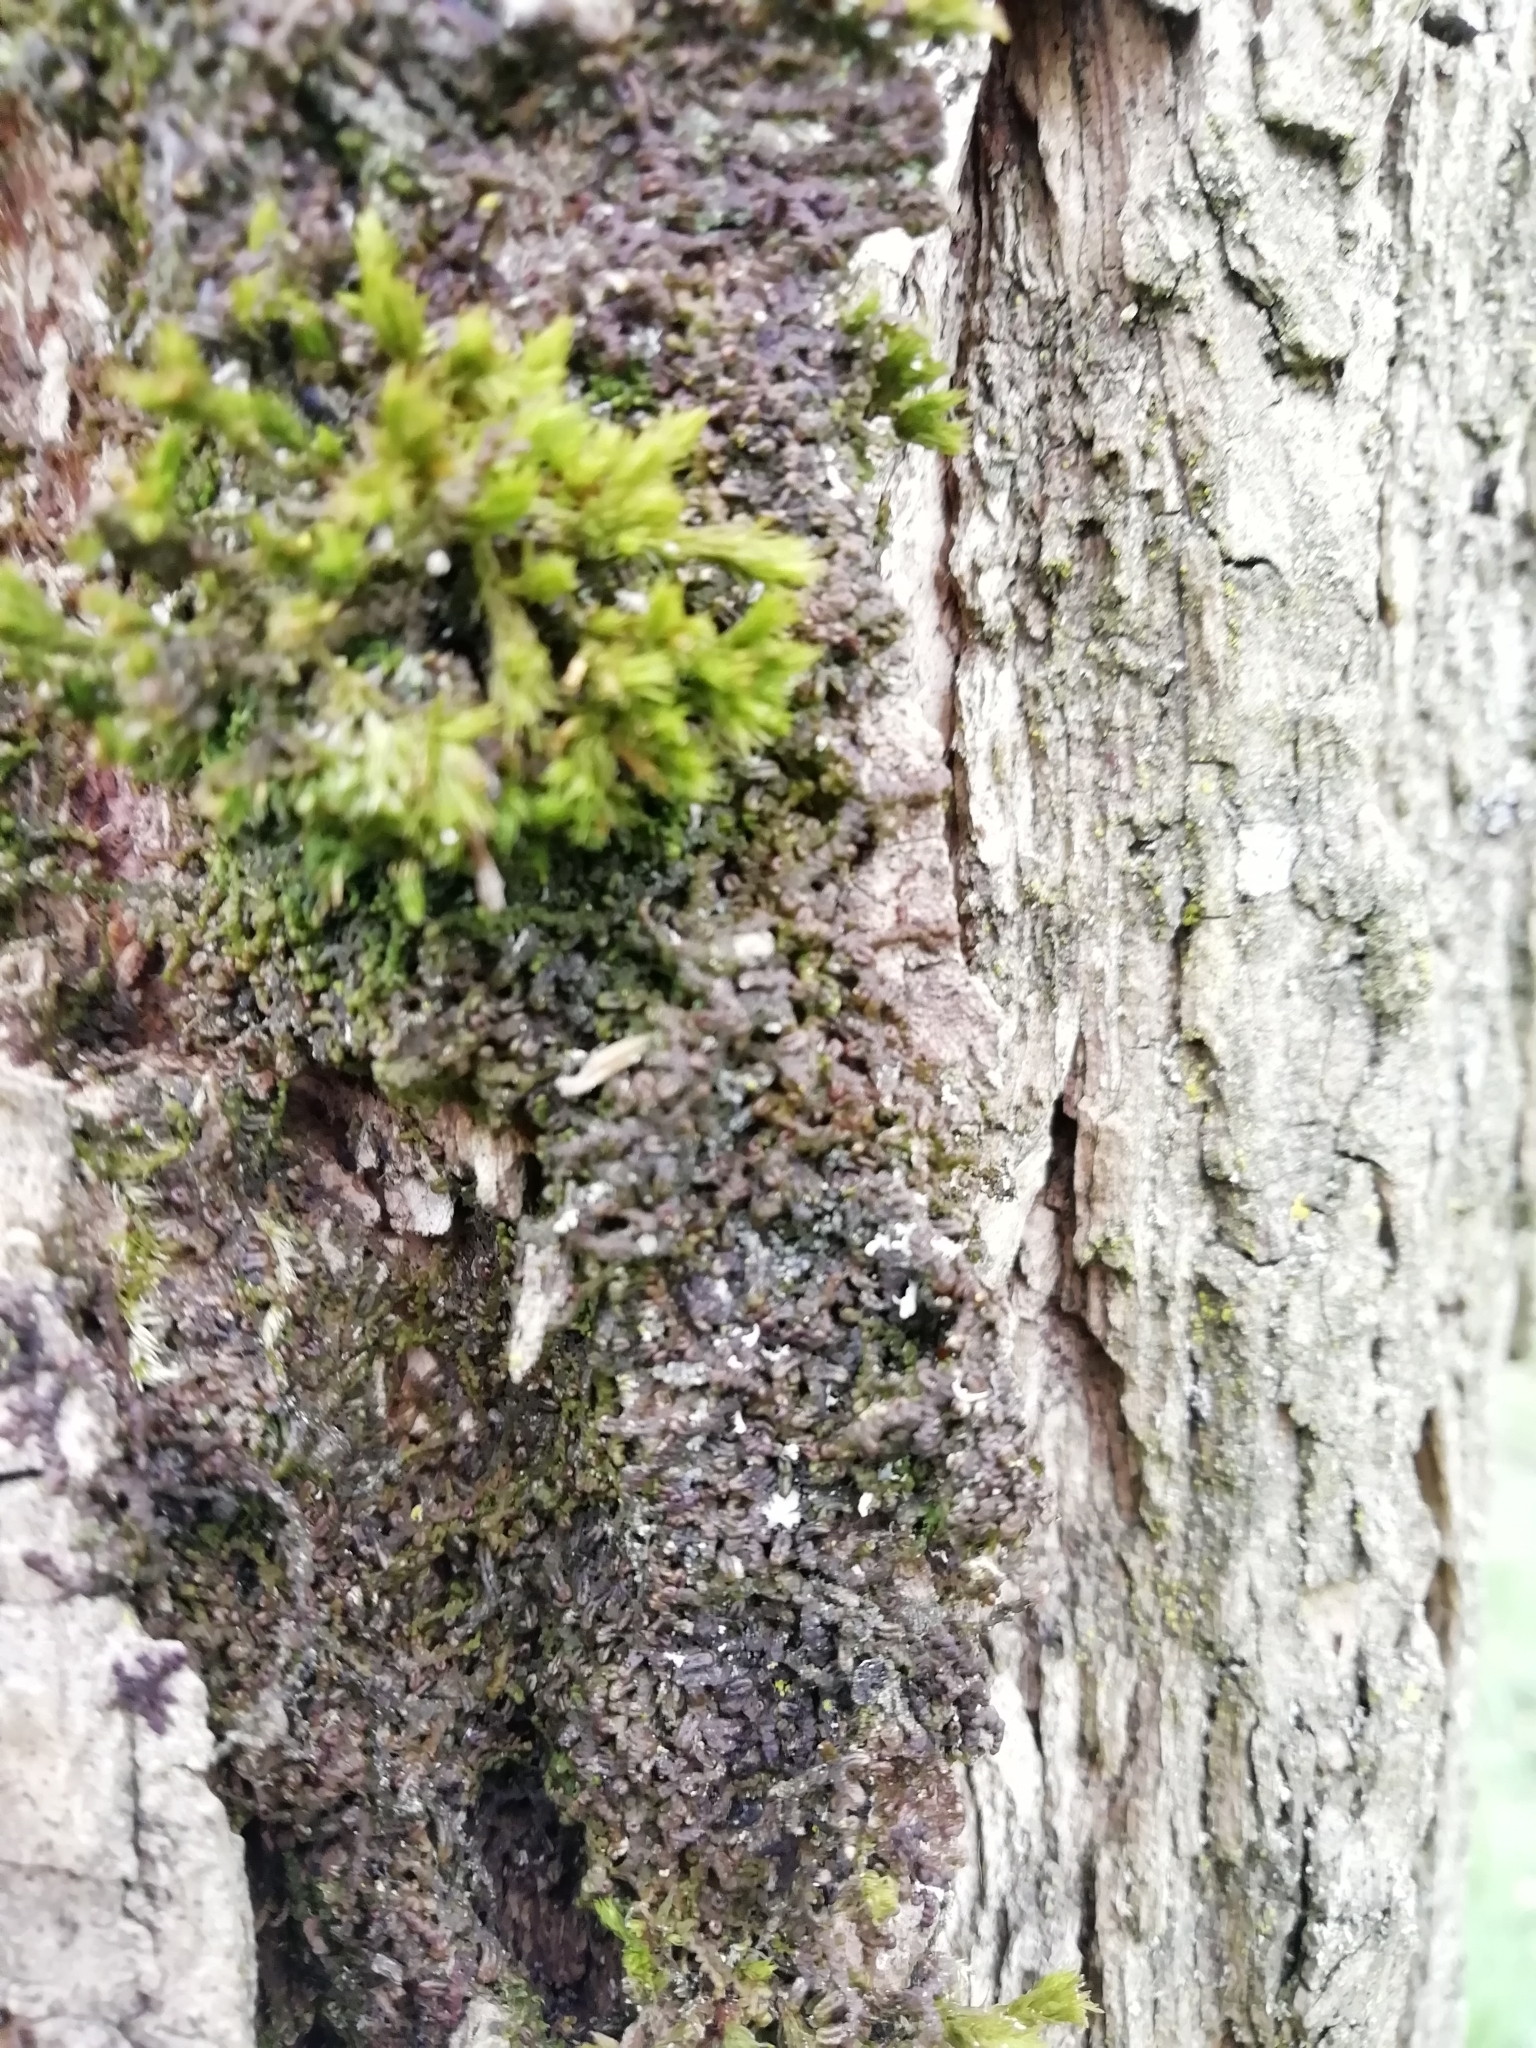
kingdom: Plantae
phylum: Marchantiophyta
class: Jungermanniopsida
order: Porellales
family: Frullaniaceae
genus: Frullania
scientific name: Frullania dilatata
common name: Dilated scalewort
